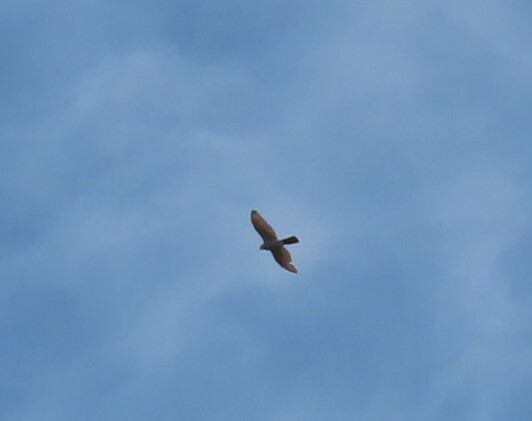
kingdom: Animalia
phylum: Chordata
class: Aves
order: Accipitriformes
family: Accipitridae
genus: Accipiter
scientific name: Accipiter nisus
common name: Eurasian sparrowhawk
